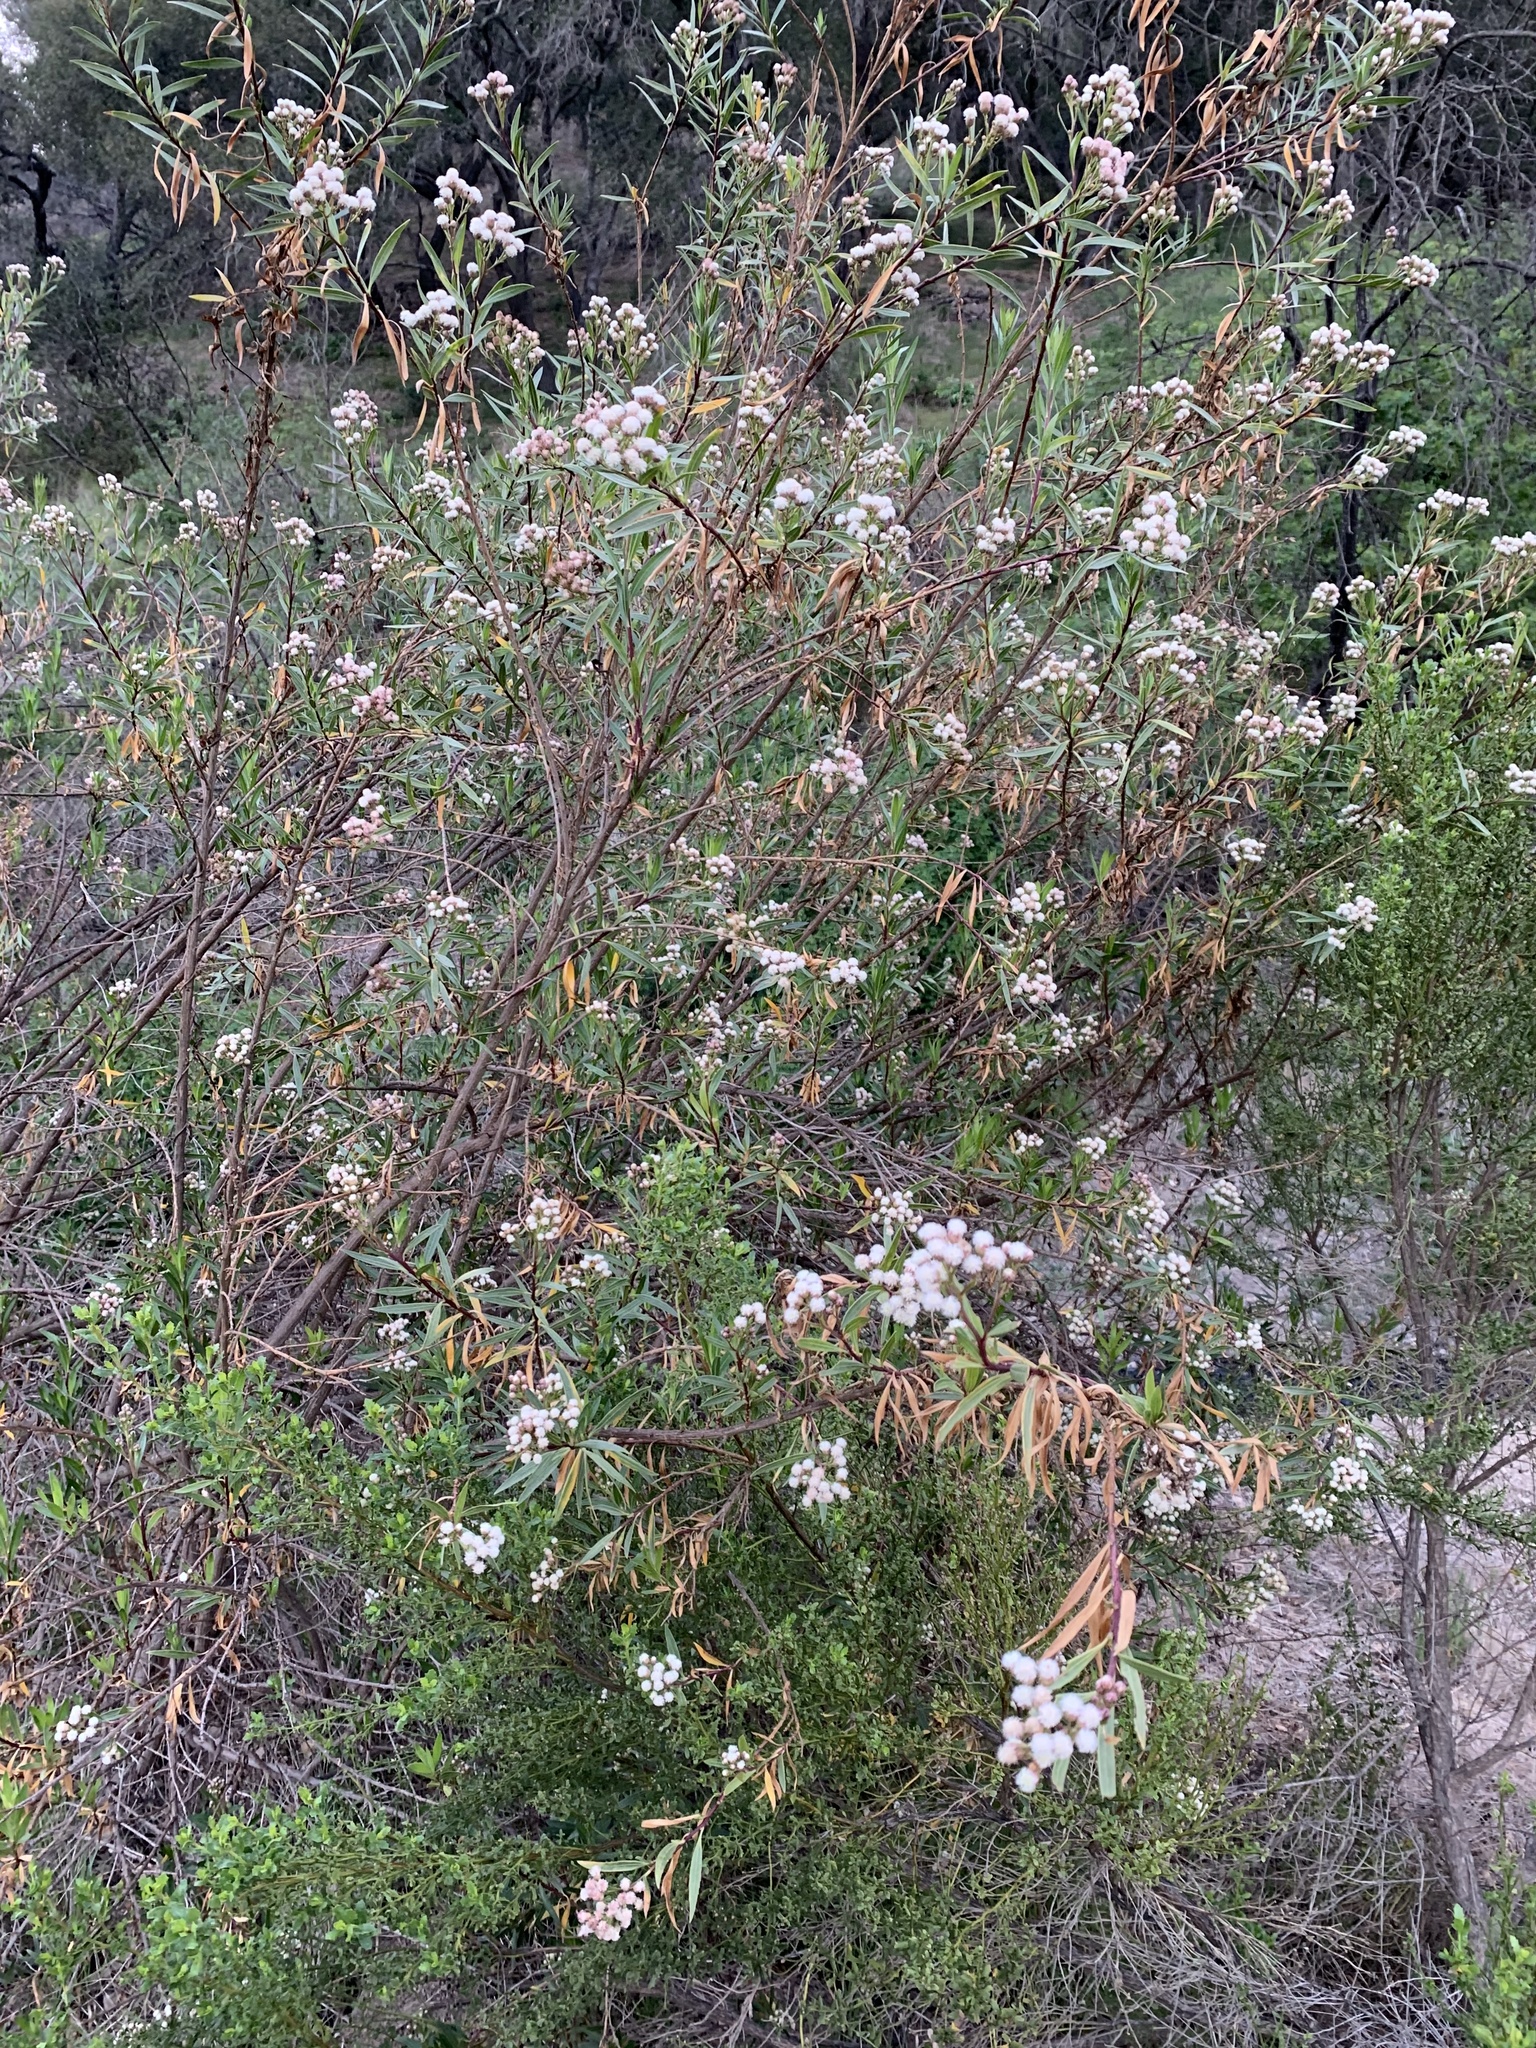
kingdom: Plantae
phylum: Tracheophyta
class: Magnoliopsida
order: Asterales
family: Asteraceae
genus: Baccharis
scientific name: Baccharis salicifolia
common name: Sticky baccharis
